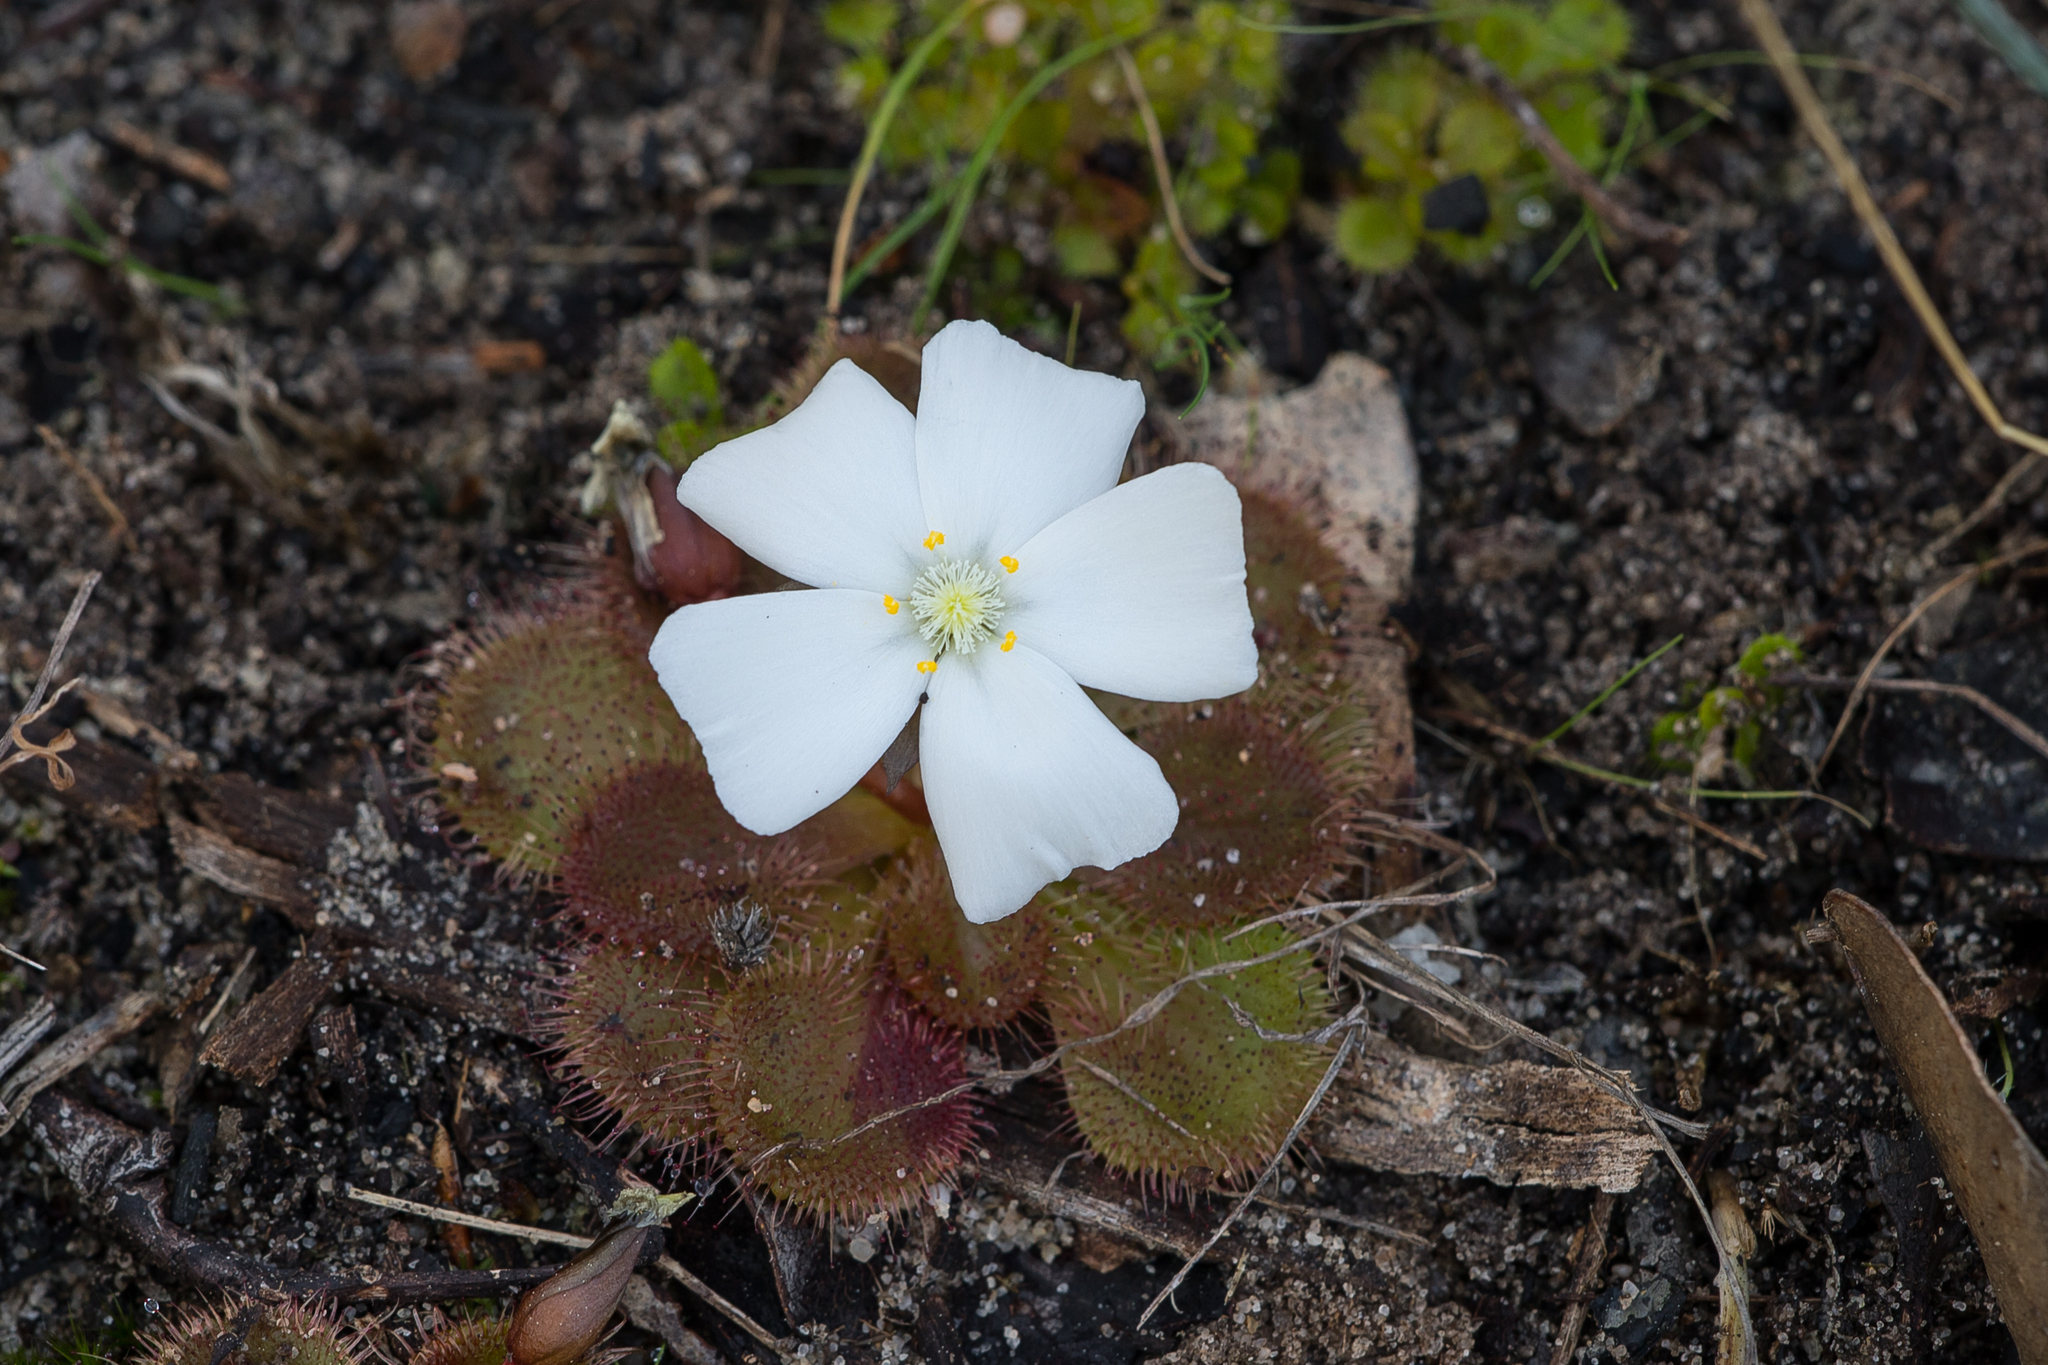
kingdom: Plantae
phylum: Tracheophyta
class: Magnoliopsida
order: Caryophyllales
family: Droseraceae
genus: Drosera
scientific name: Drosera whittakeri
